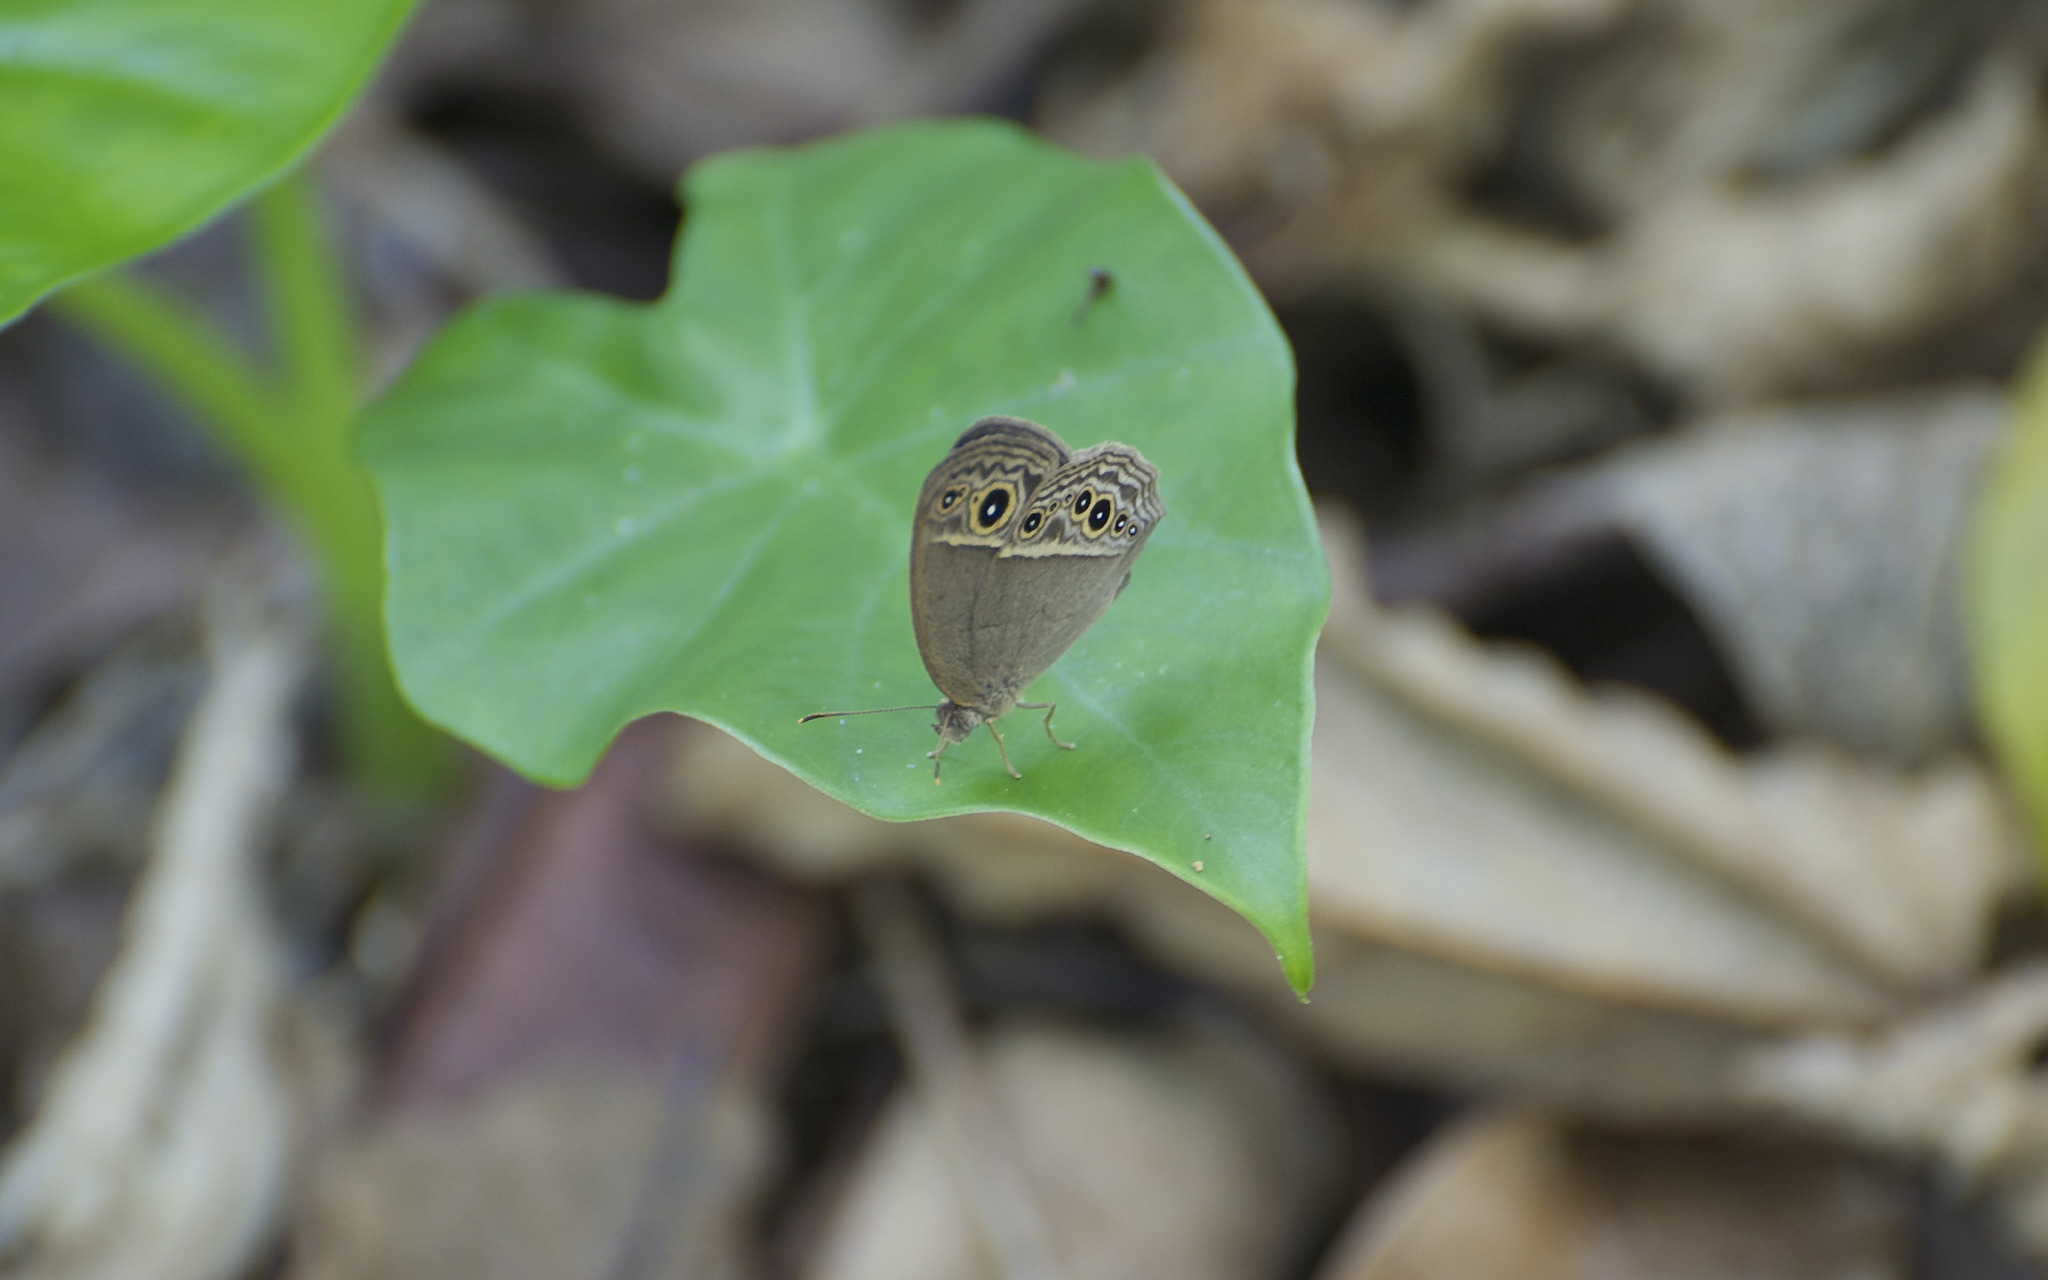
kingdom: Animalia
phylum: Arthropoda
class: Insecta
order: Lepidoptera
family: Nymphalidae
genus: Mycalesis
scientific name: Mycalesis mineus
